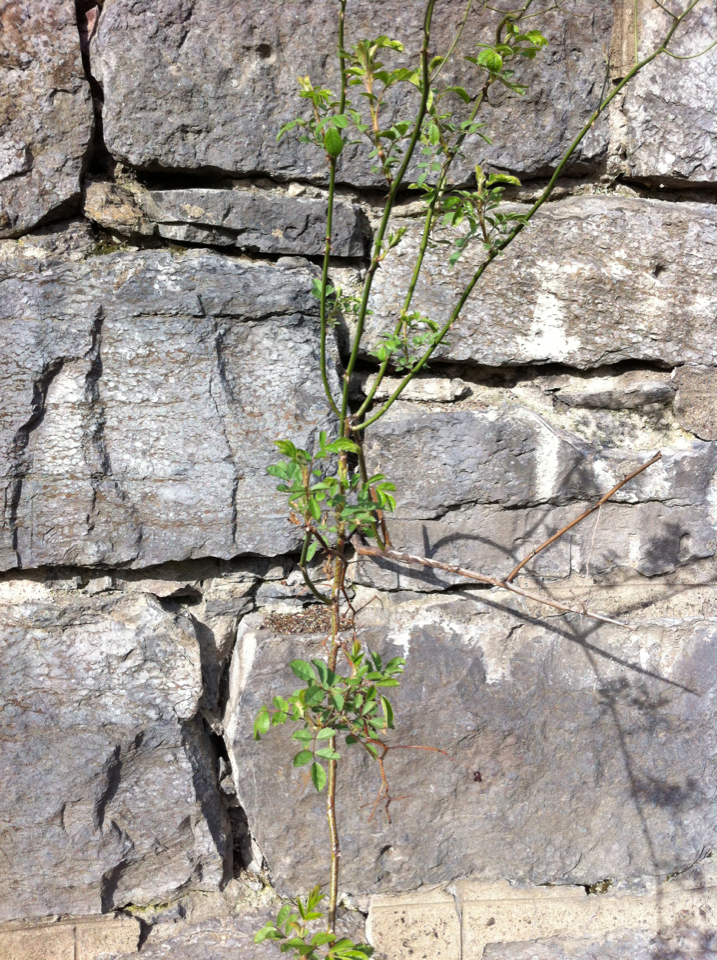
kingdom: Plantae
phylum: Tracheophyta
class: Magnoliopsida
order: Rosales
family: Rosaceae
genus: Rosa
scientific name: Rosa multiflora
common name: Multiflora rose
